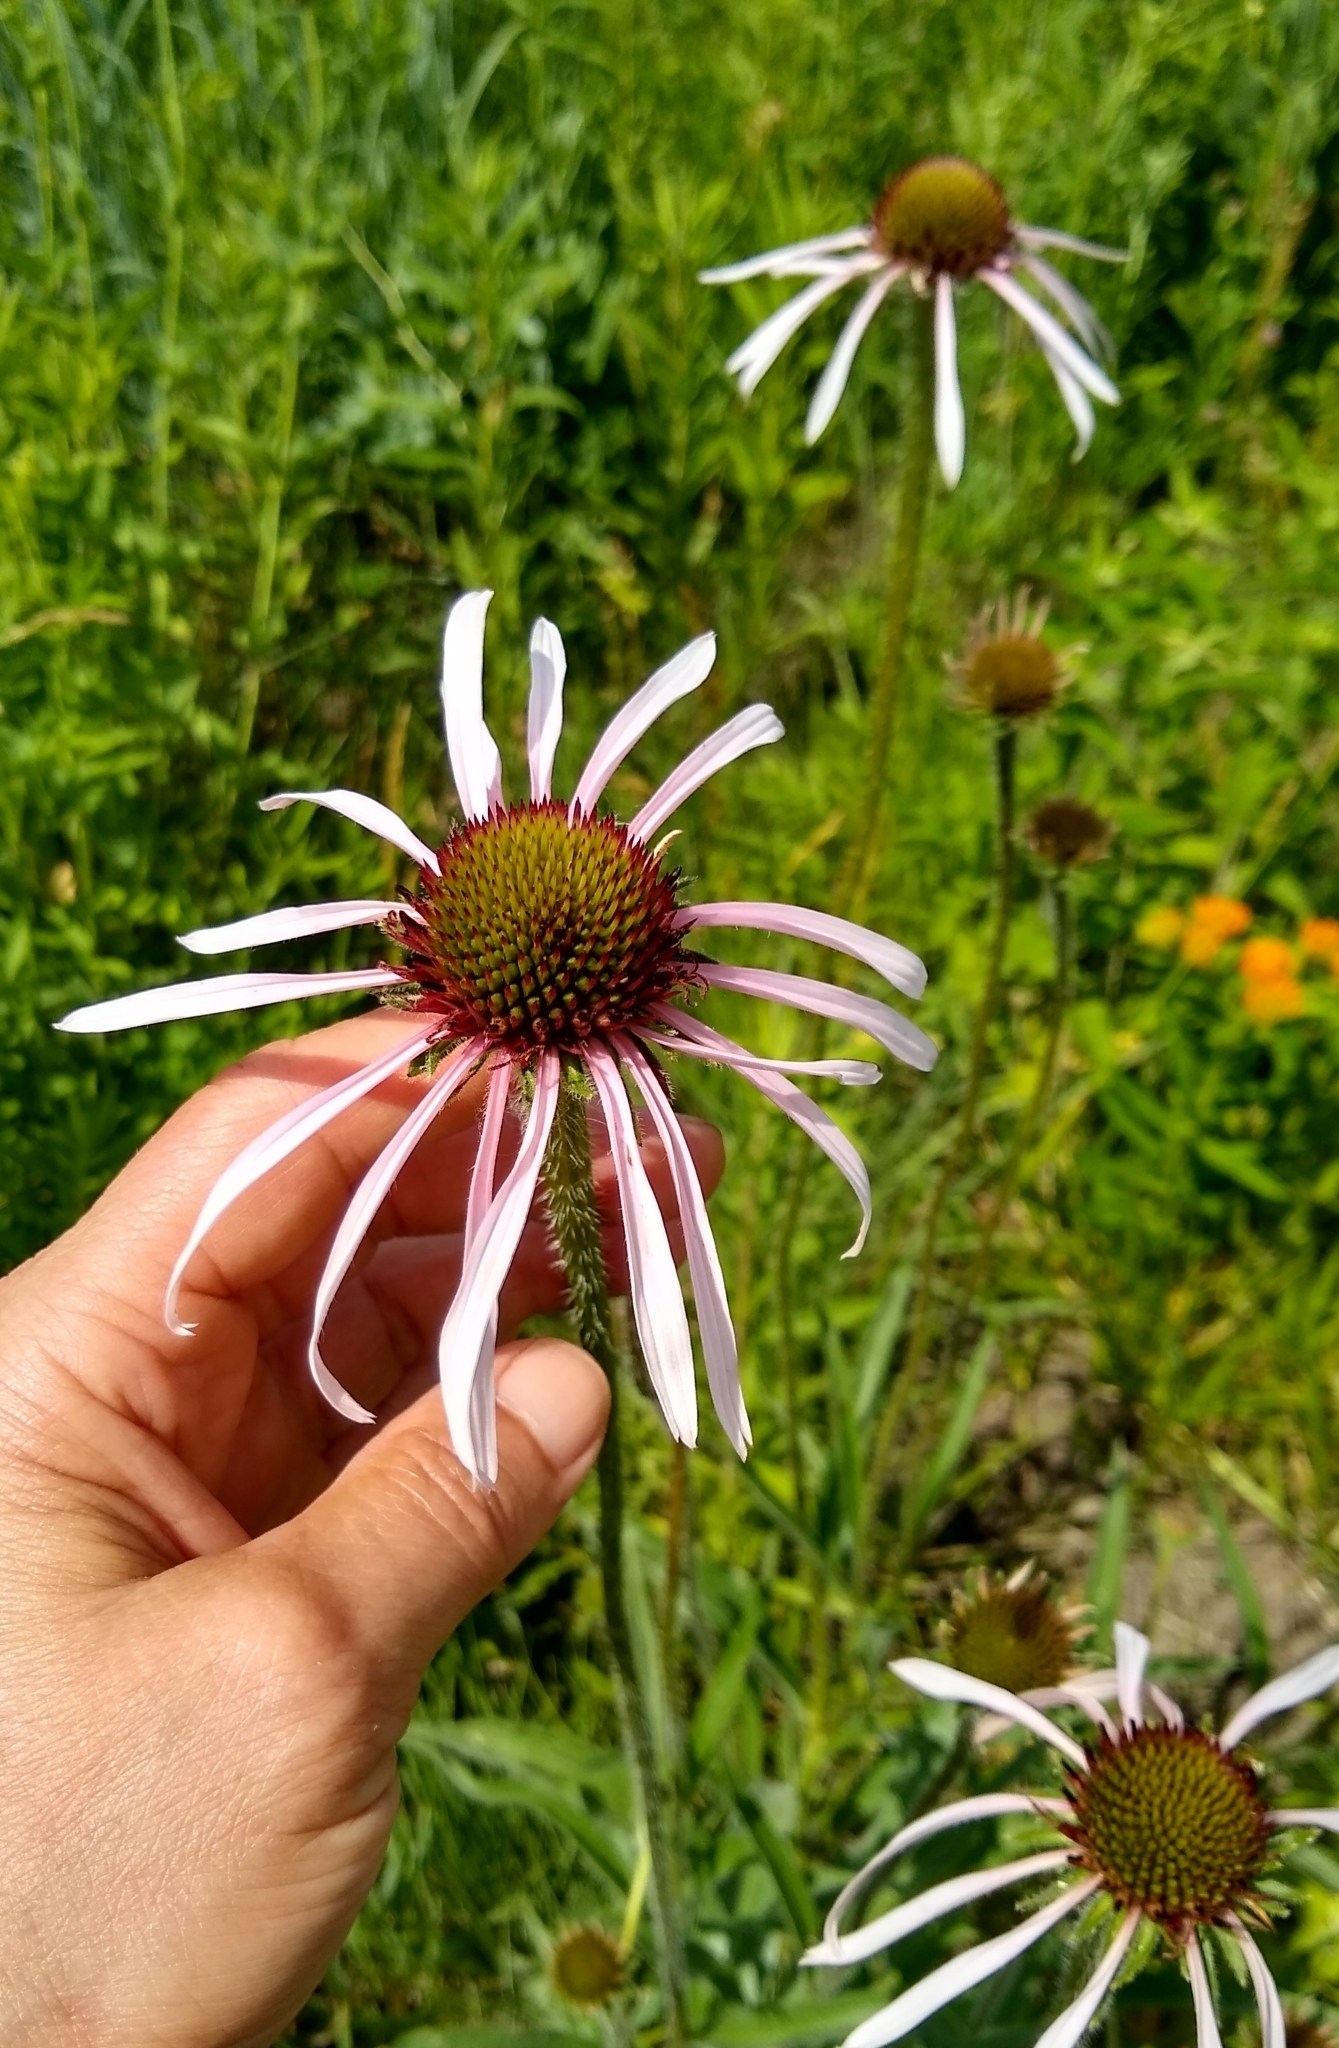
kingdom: Plantae
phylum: Tracheophyta
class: Magnoliopsida
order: Asterales
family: Asteraceae
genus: Echinacea
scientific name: Echinacea pallida
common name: Pale echinacea
